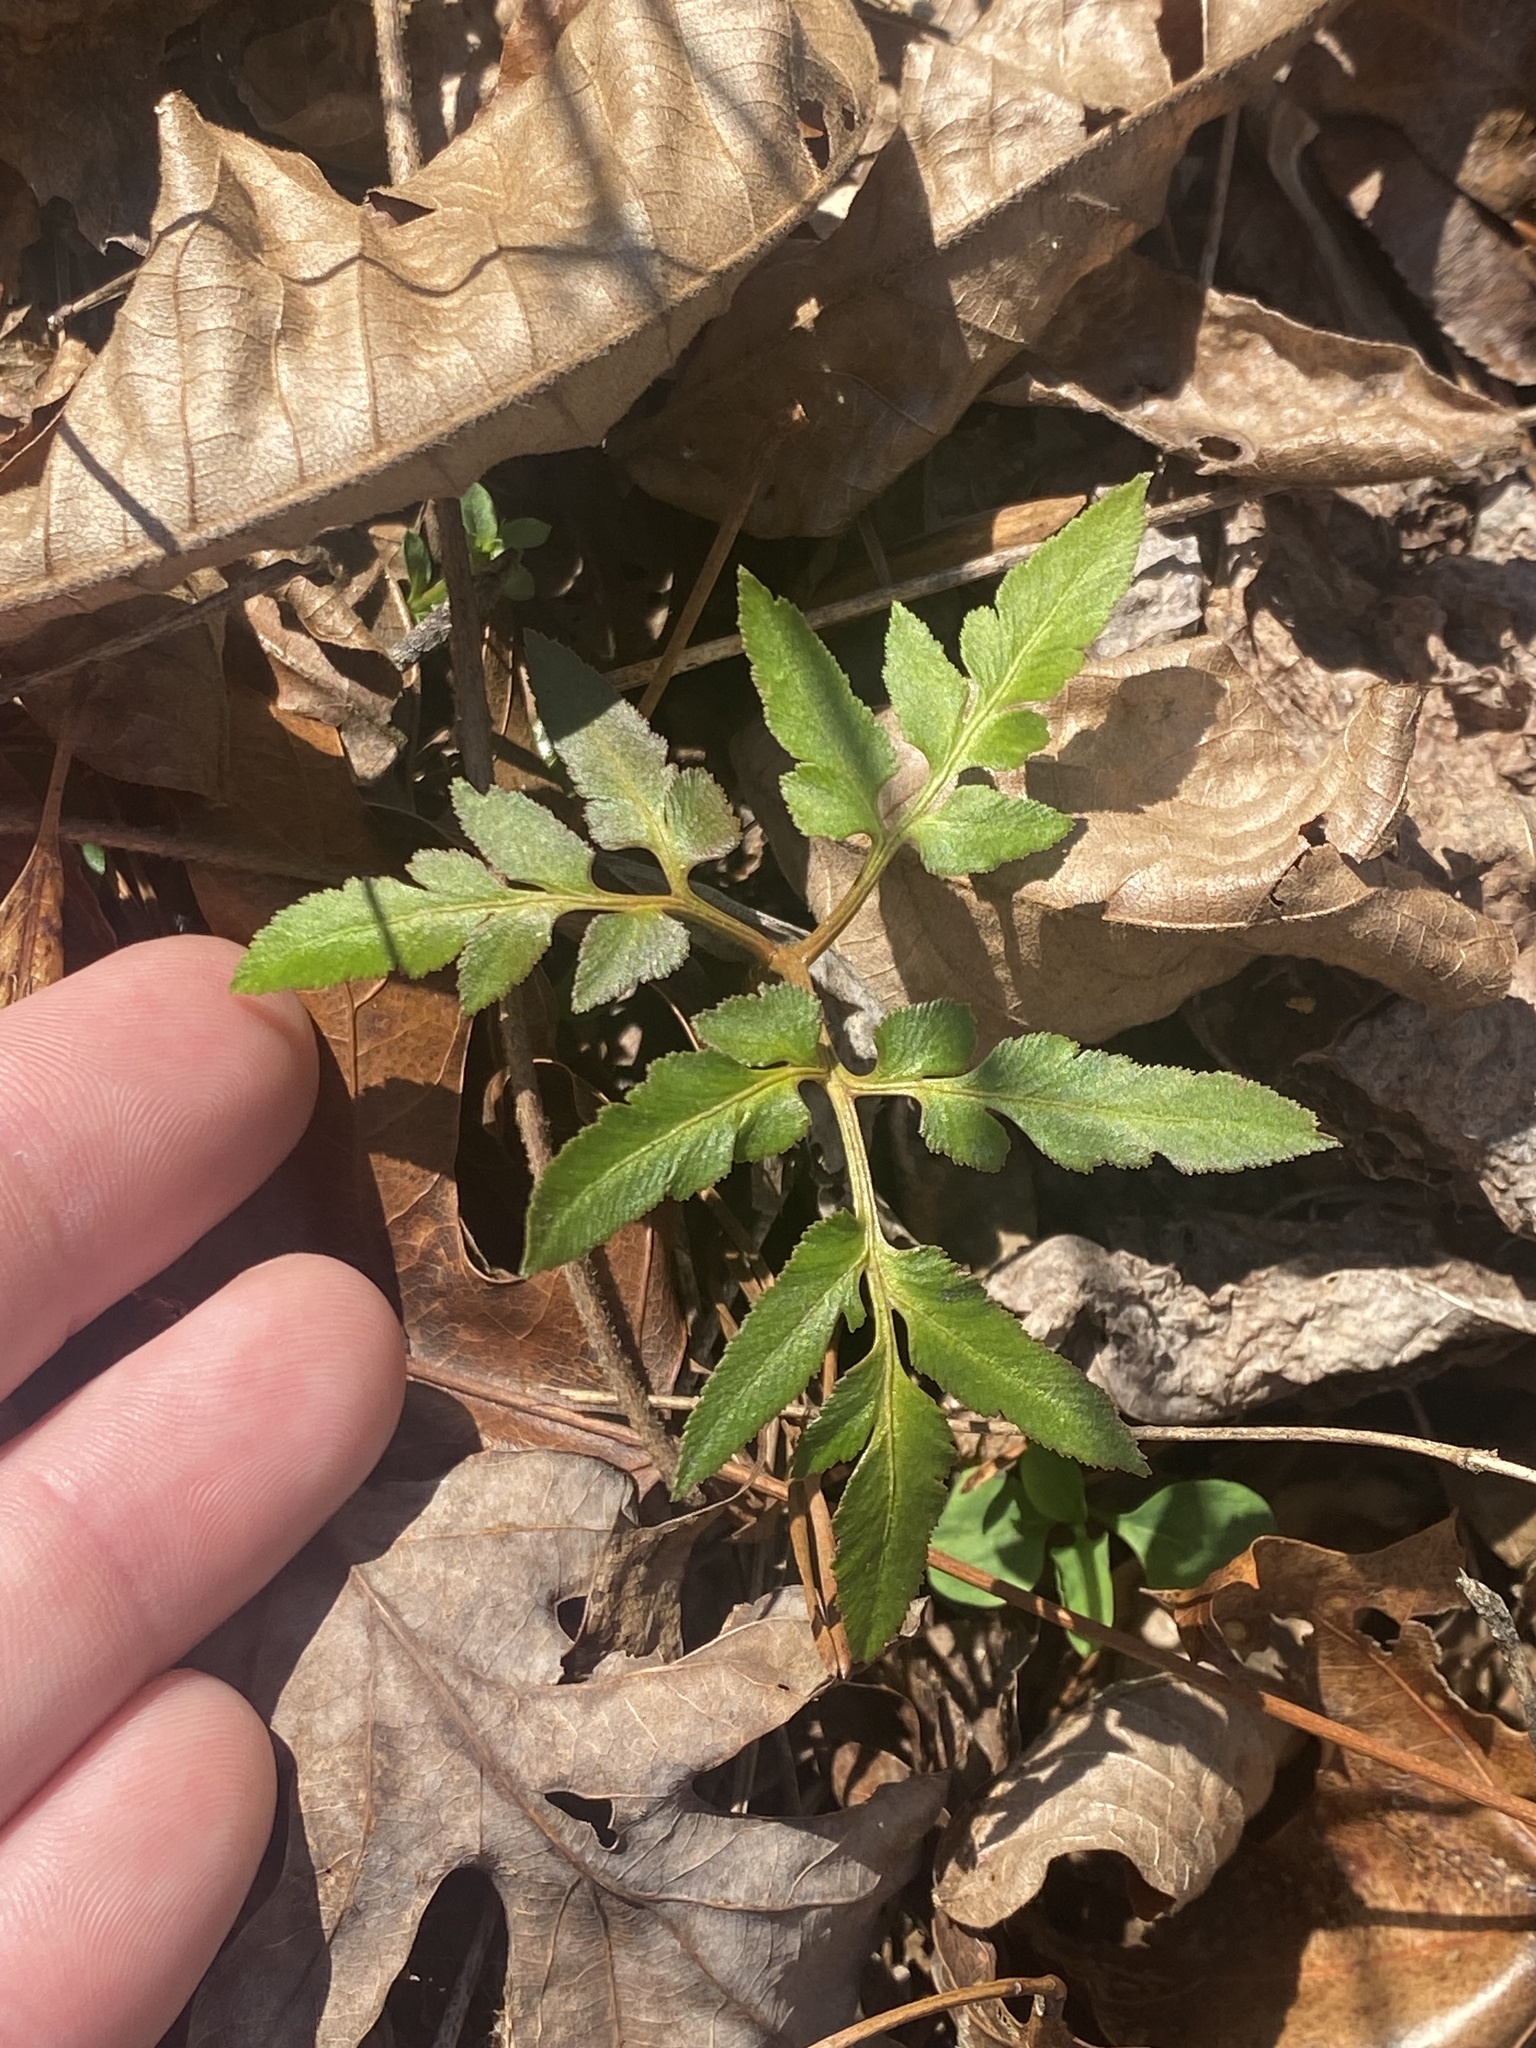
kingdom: Plantae
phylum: Tracheophyta
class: Polypodiopsida
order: Ophioglossales
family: Ophioglossaceae
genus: Sceptridium
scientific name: Sceptridium dissectum
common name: Cut-leaved grapefern
